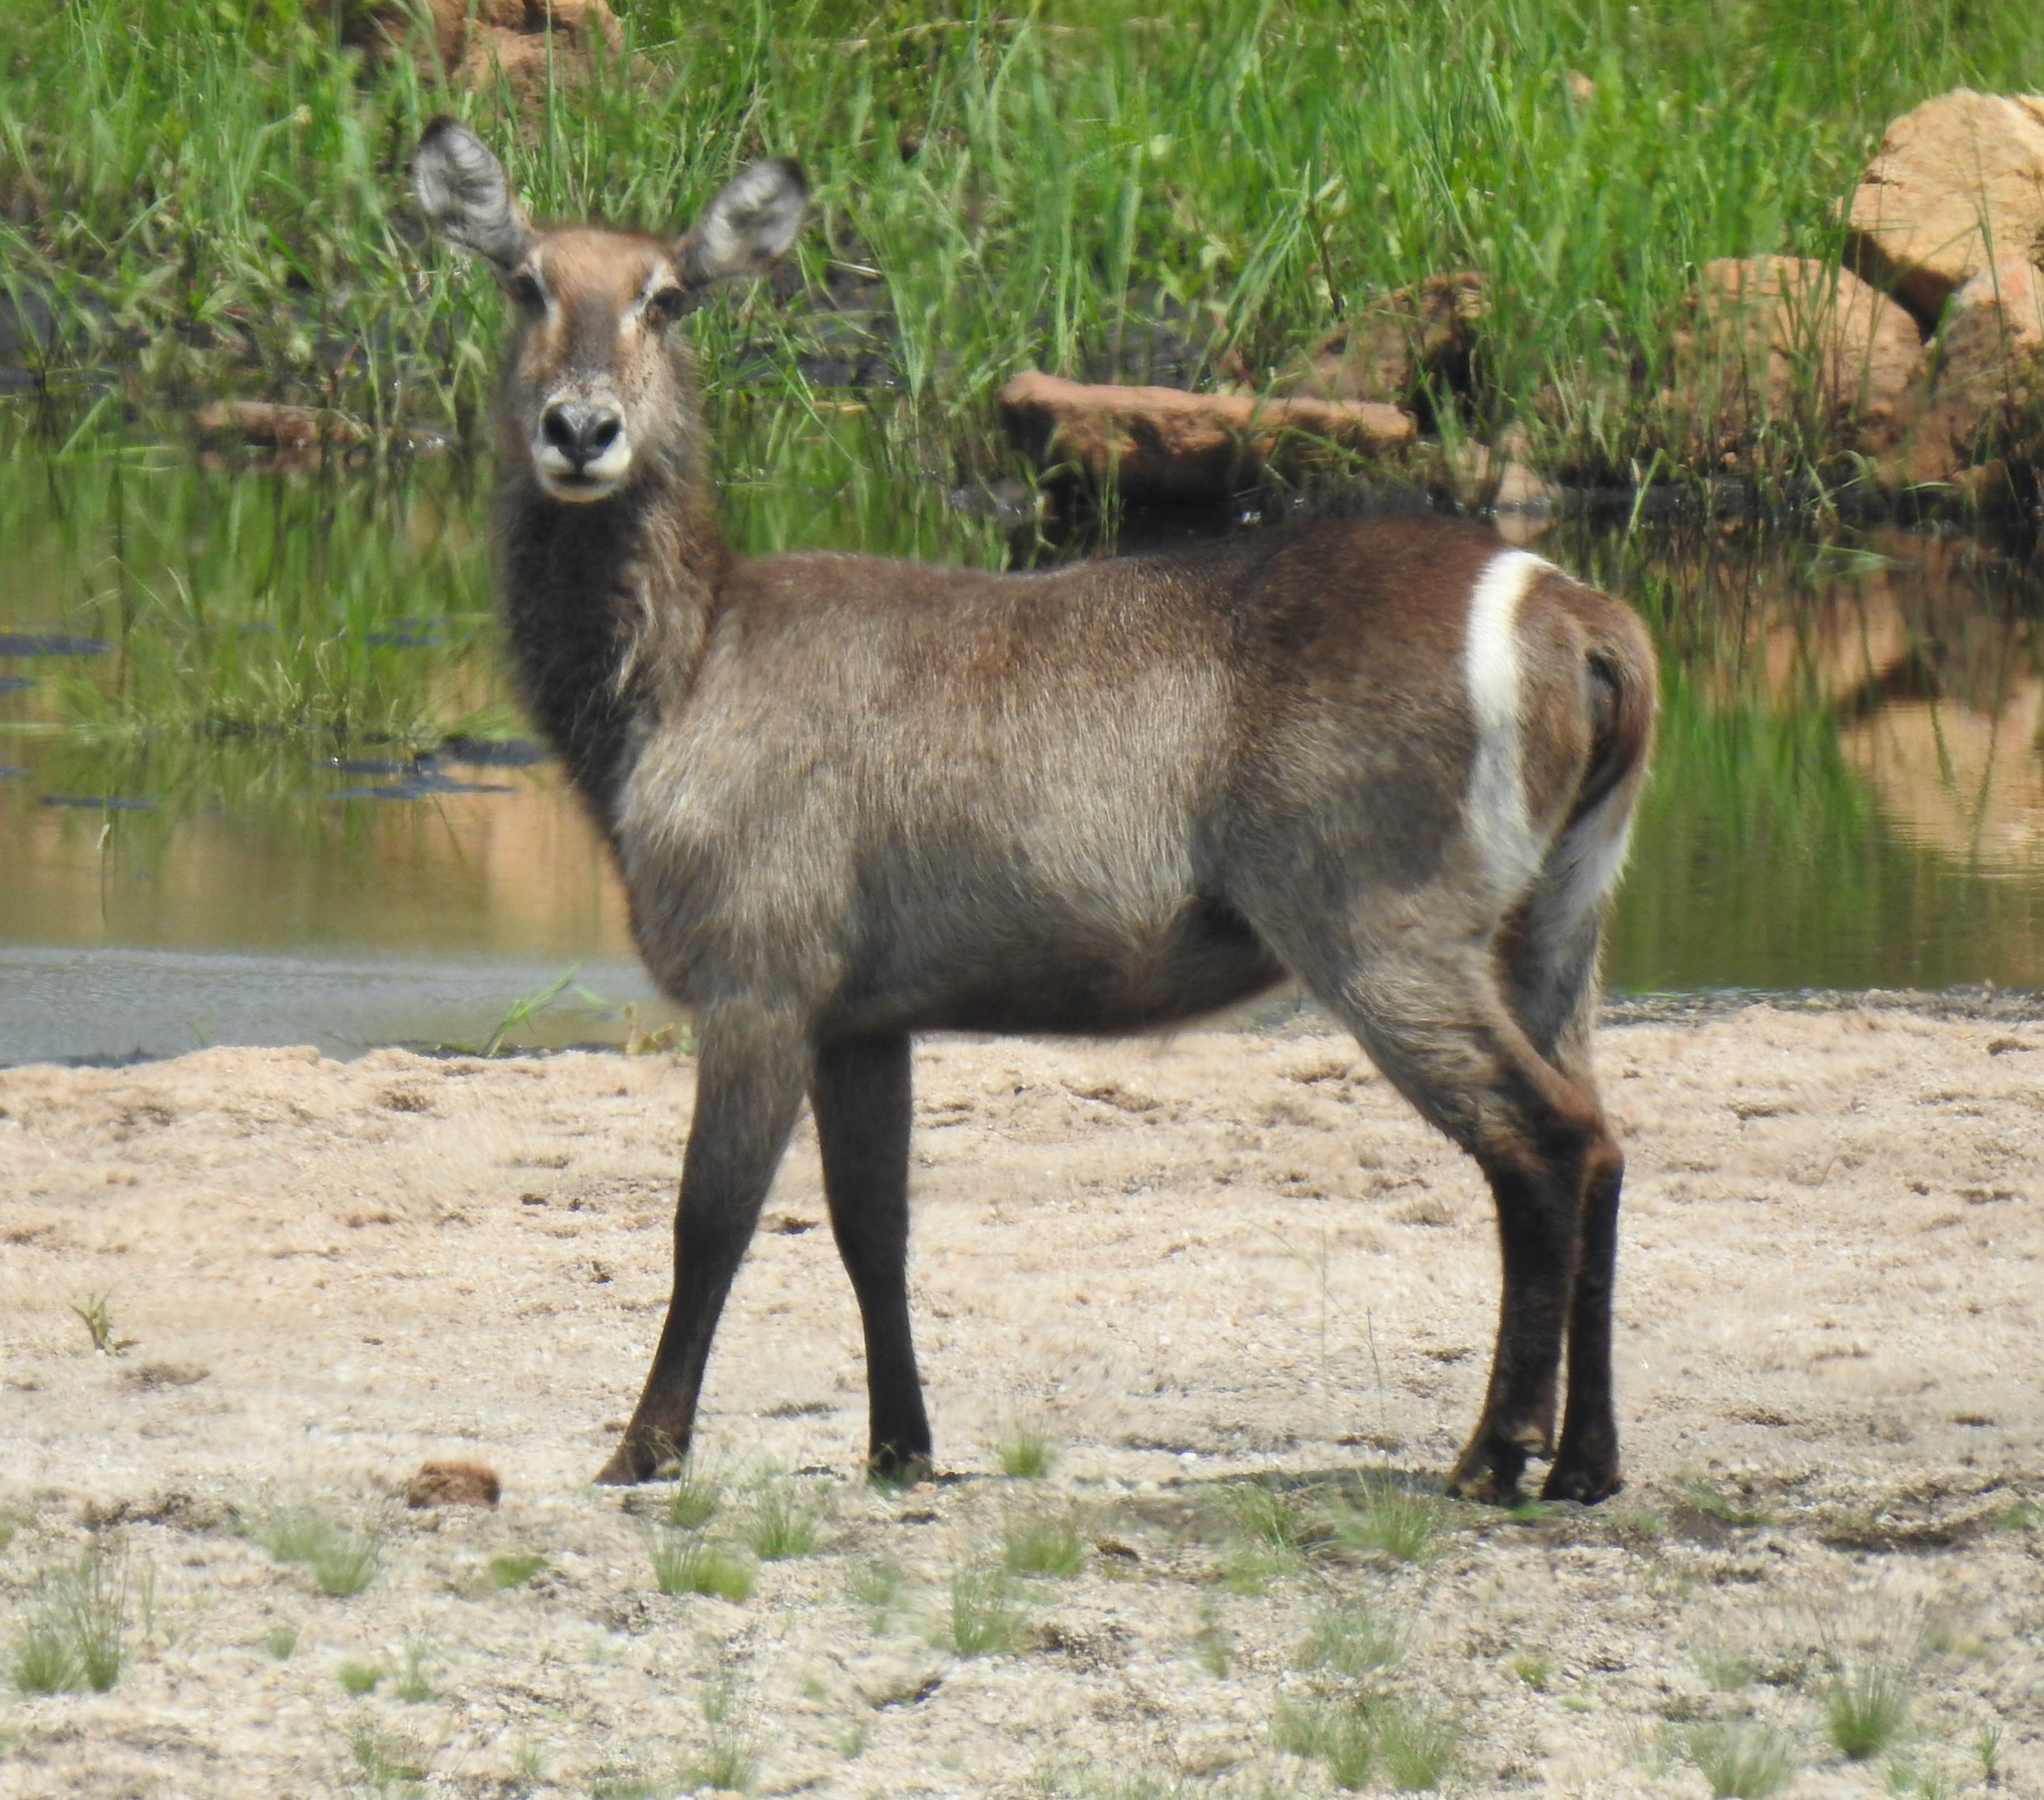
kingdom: Animalia
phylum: Chordata
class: Mammalia
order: Artiodactyla
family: Bovidae
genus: Kobus
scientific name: Kobus ellipsiprymnus
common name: Waterbuck
